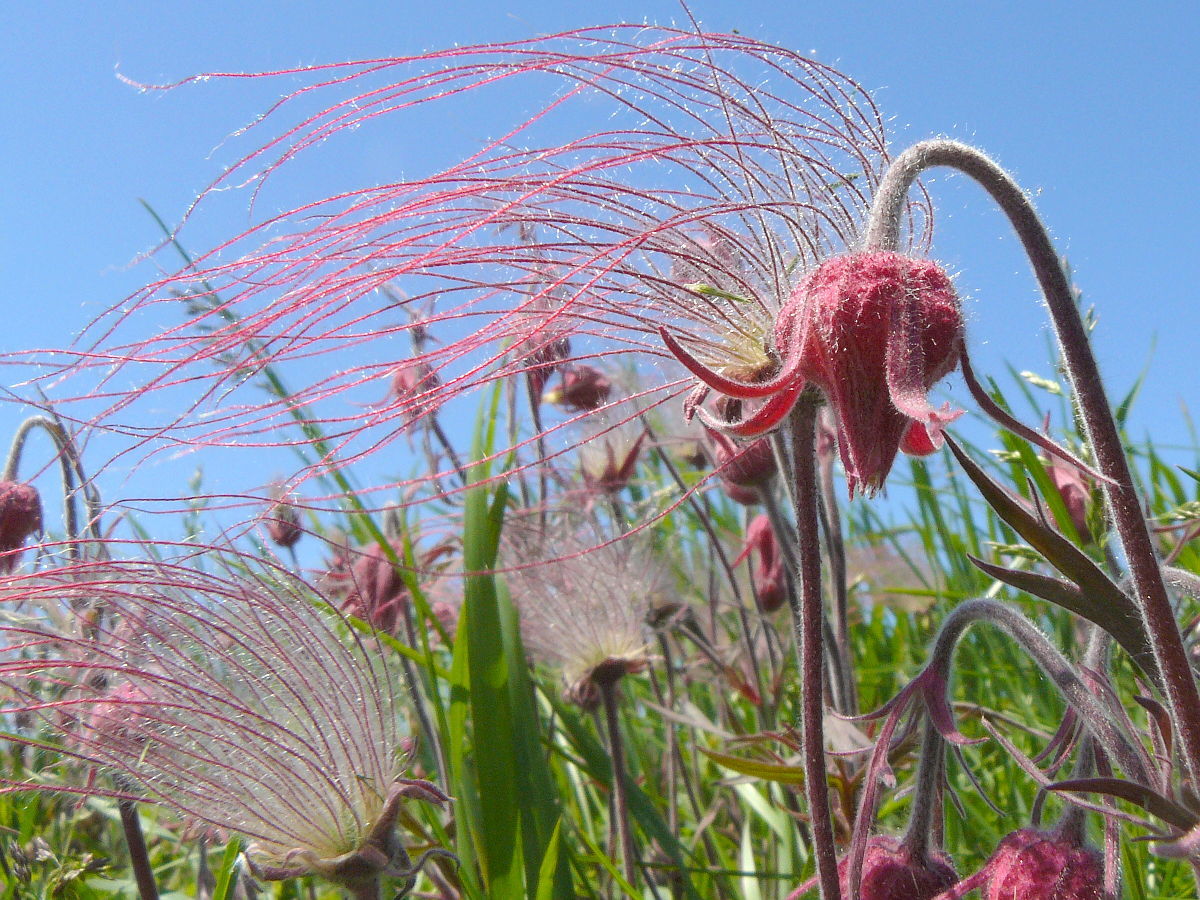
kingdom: Plantae
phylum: Tracheophyta
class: Magnoliopsida
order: Rosales
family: Rosaceae
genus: Geum
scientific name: Geum triflorum
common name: Old man's whiskers
